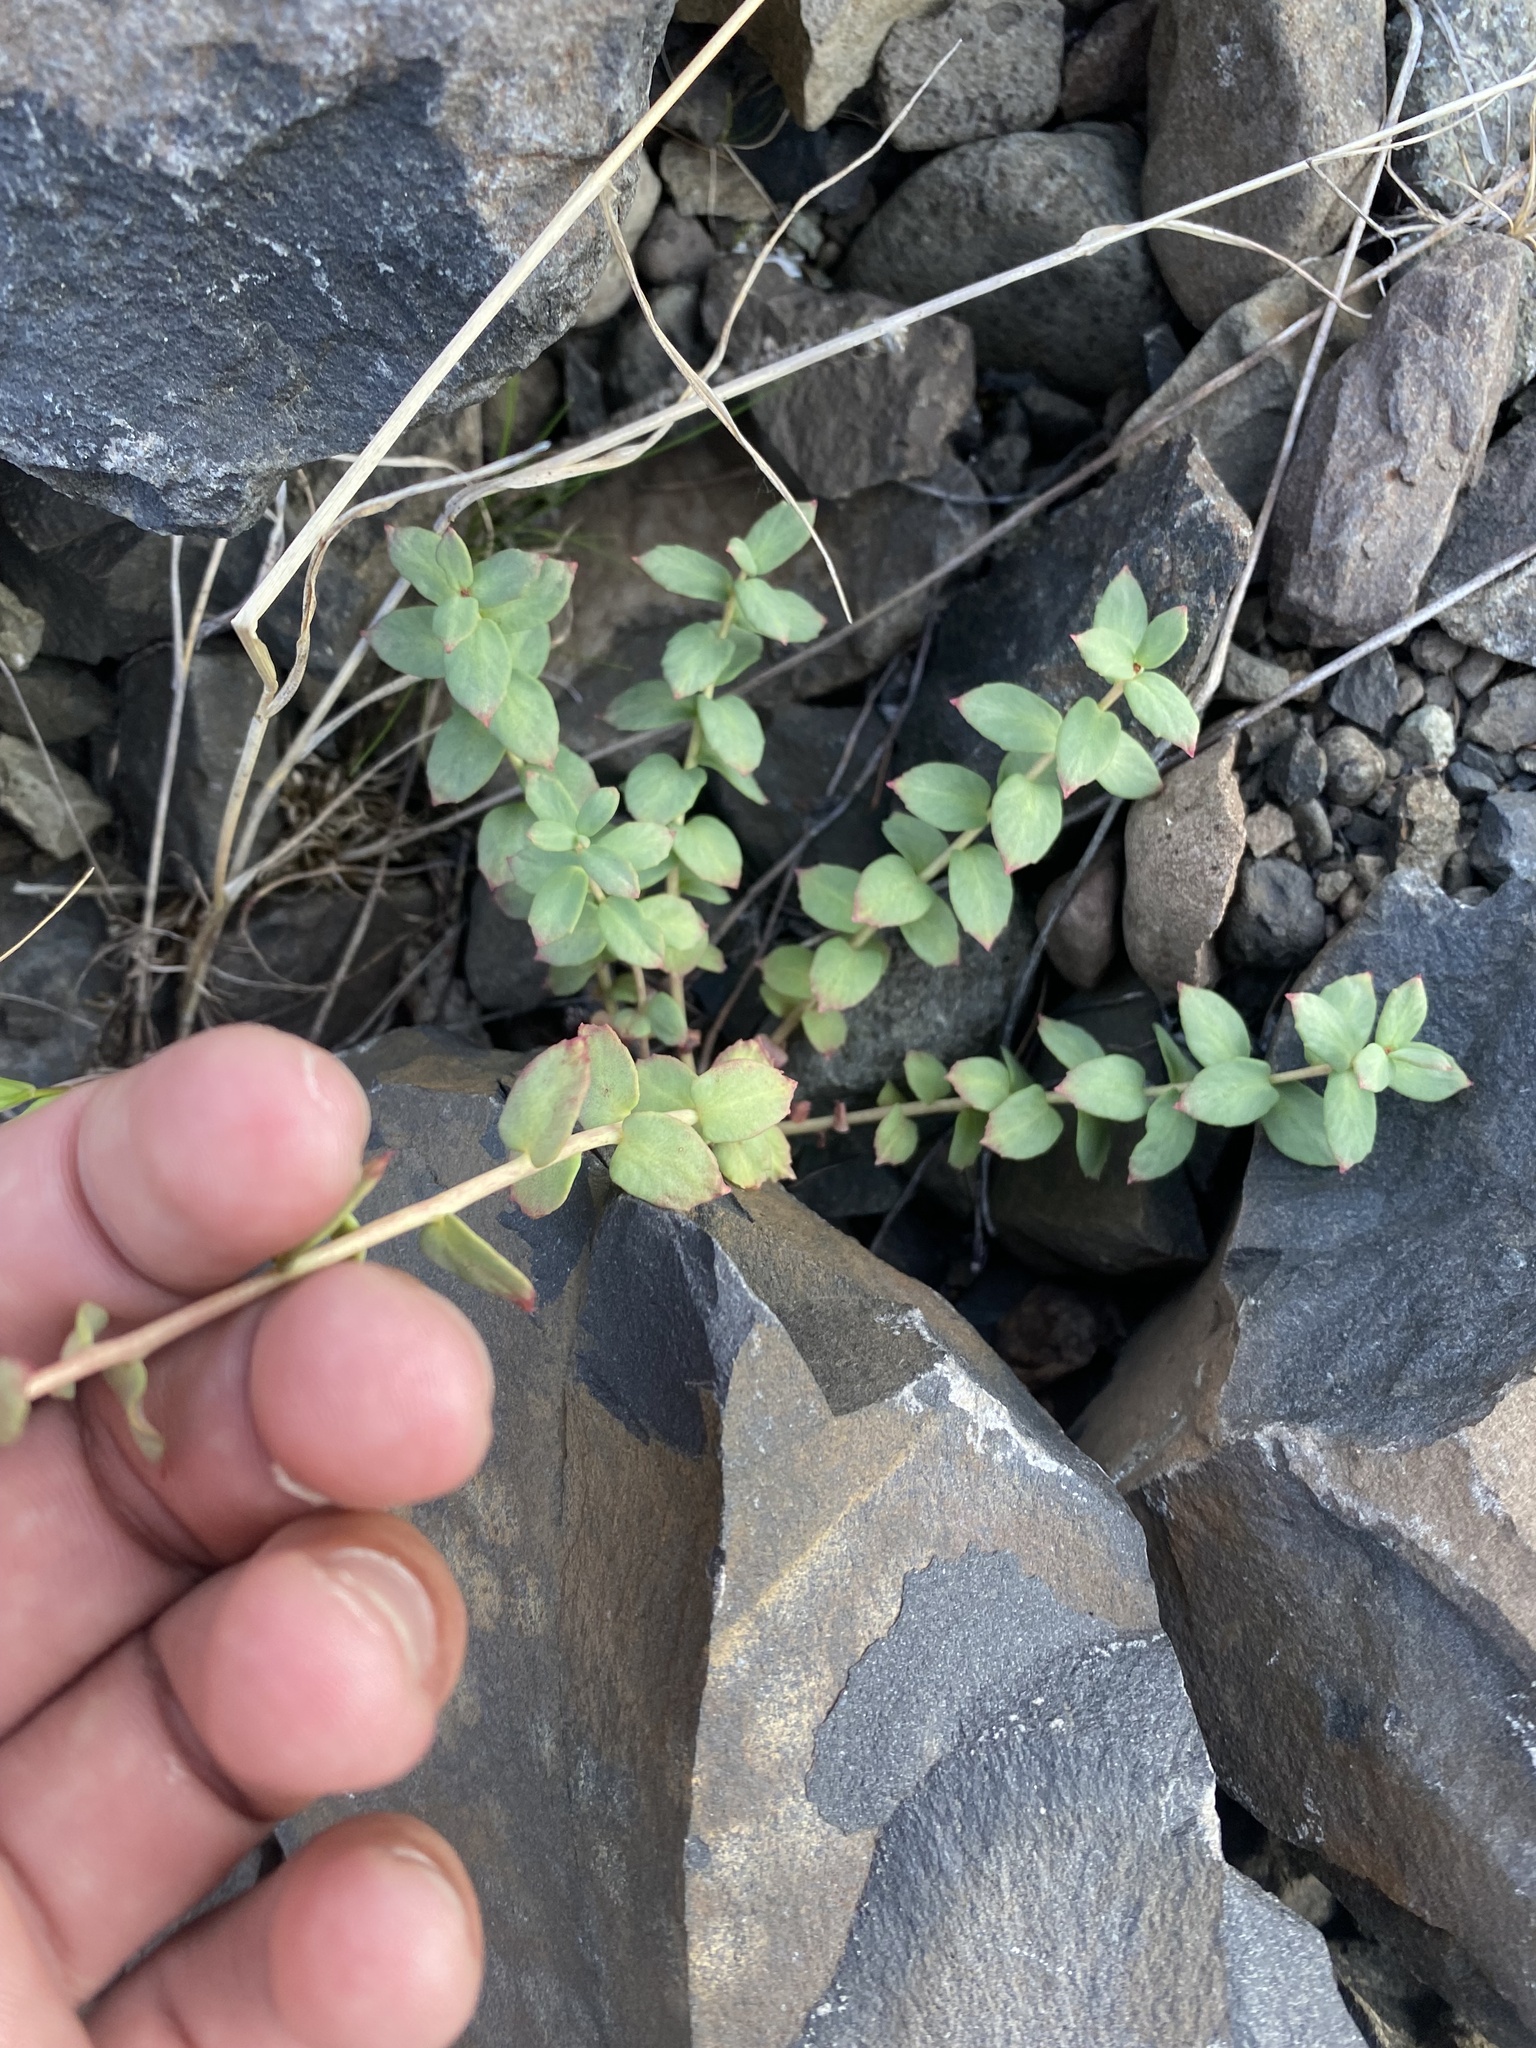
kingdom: Plantae
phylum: Tracheophyta
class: Magnoliopsida
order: Saxifragales
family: Crassulaceae
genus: Rhodiola
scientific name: Rhodiola rosea
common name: Roseroot
